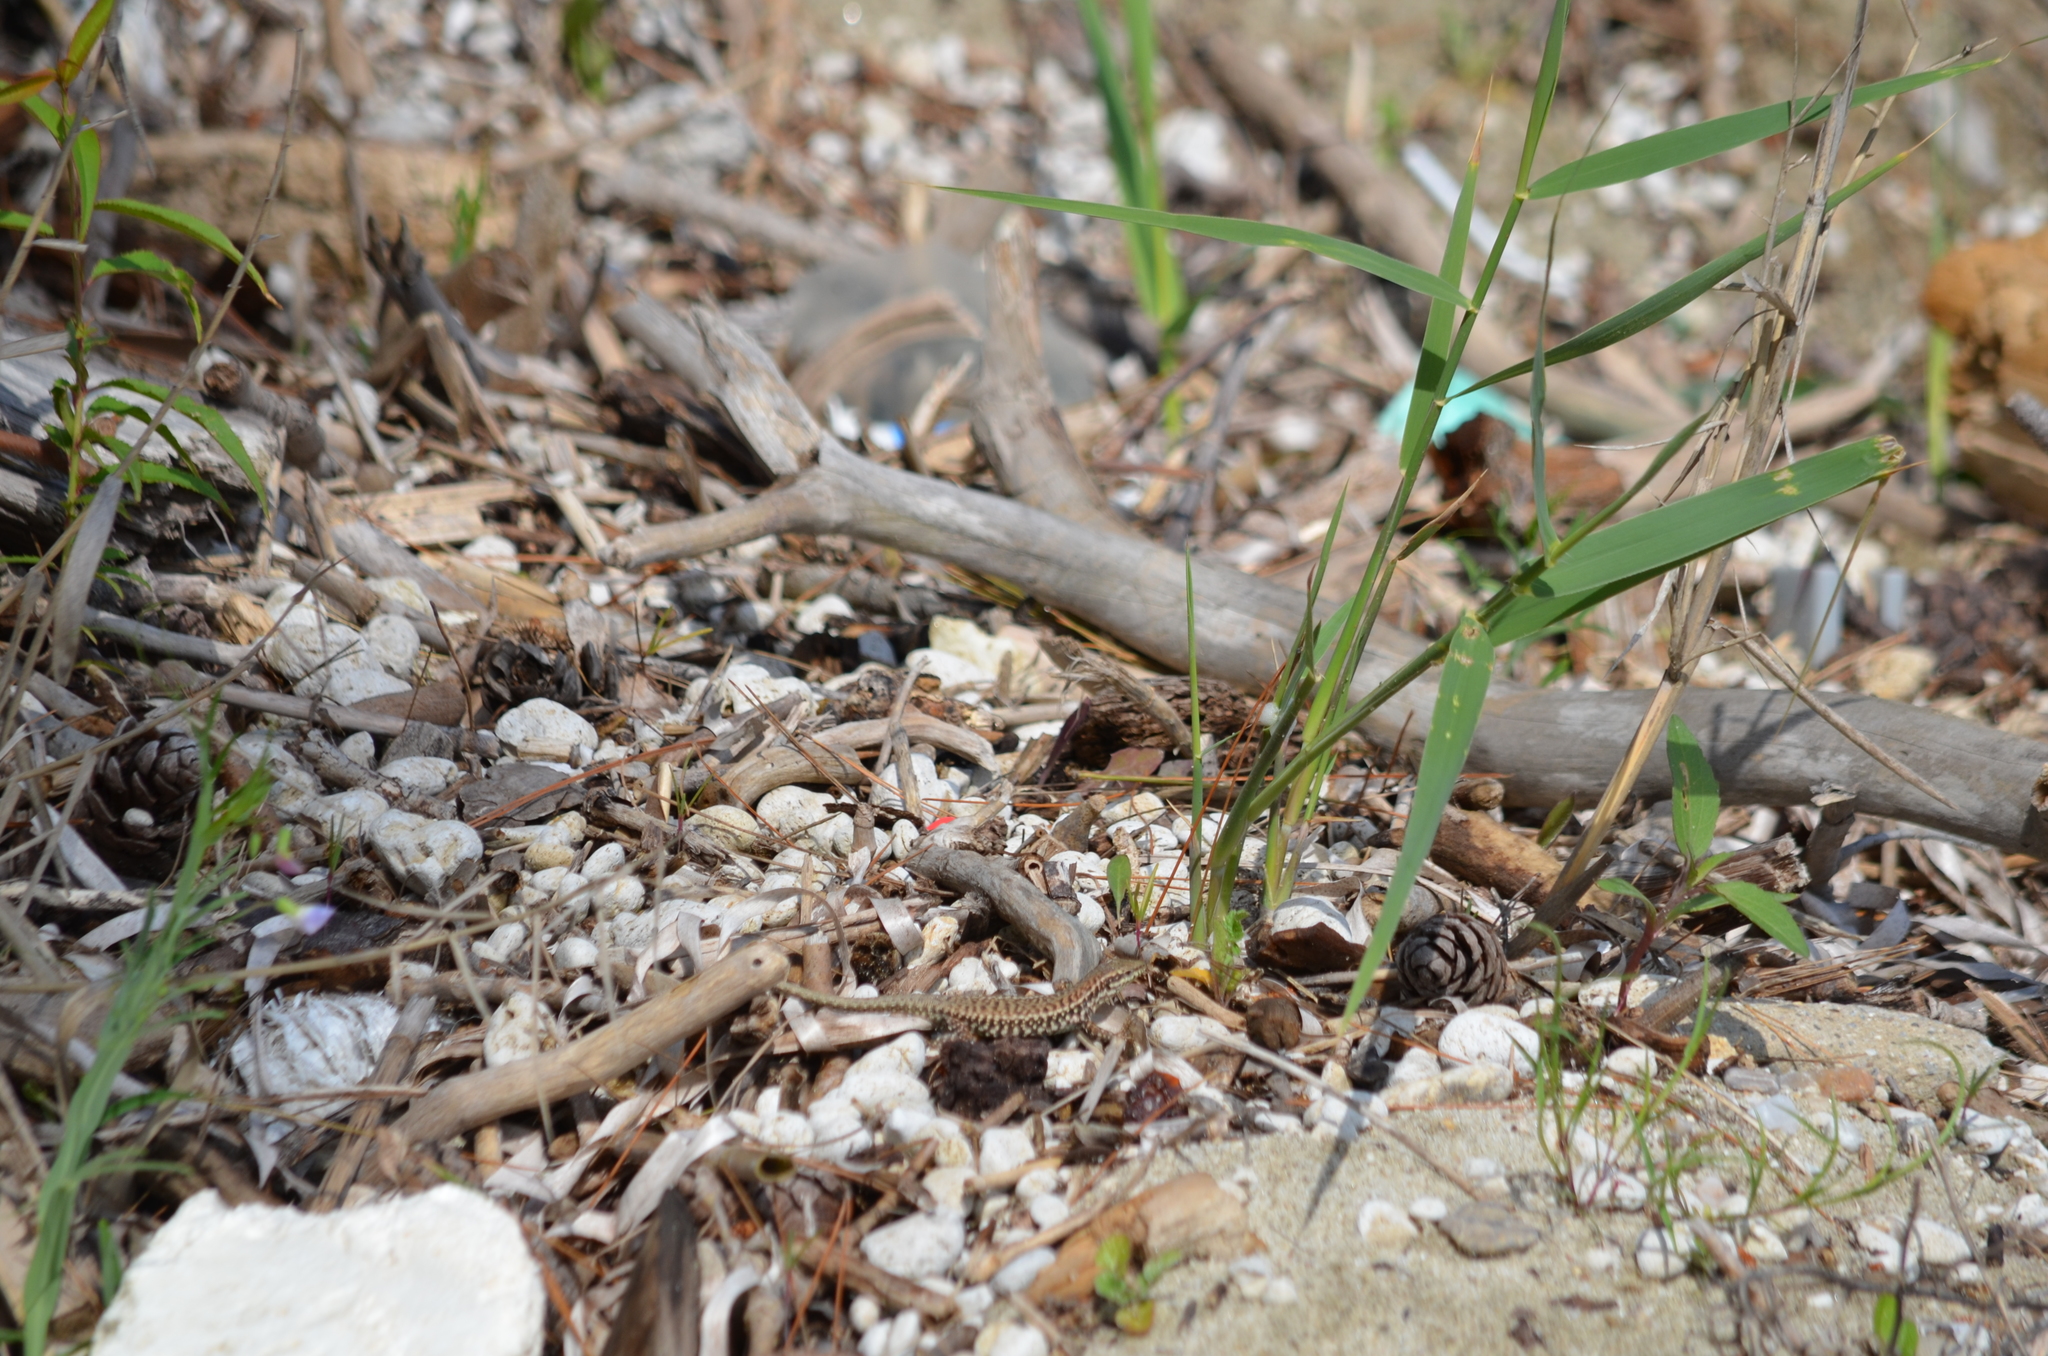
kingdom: Animalia
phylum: Chordata
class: Squamata
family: Lacertidae
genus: Podarcis
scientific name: Podarcis erhardii
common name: Erhard's wall lizard
